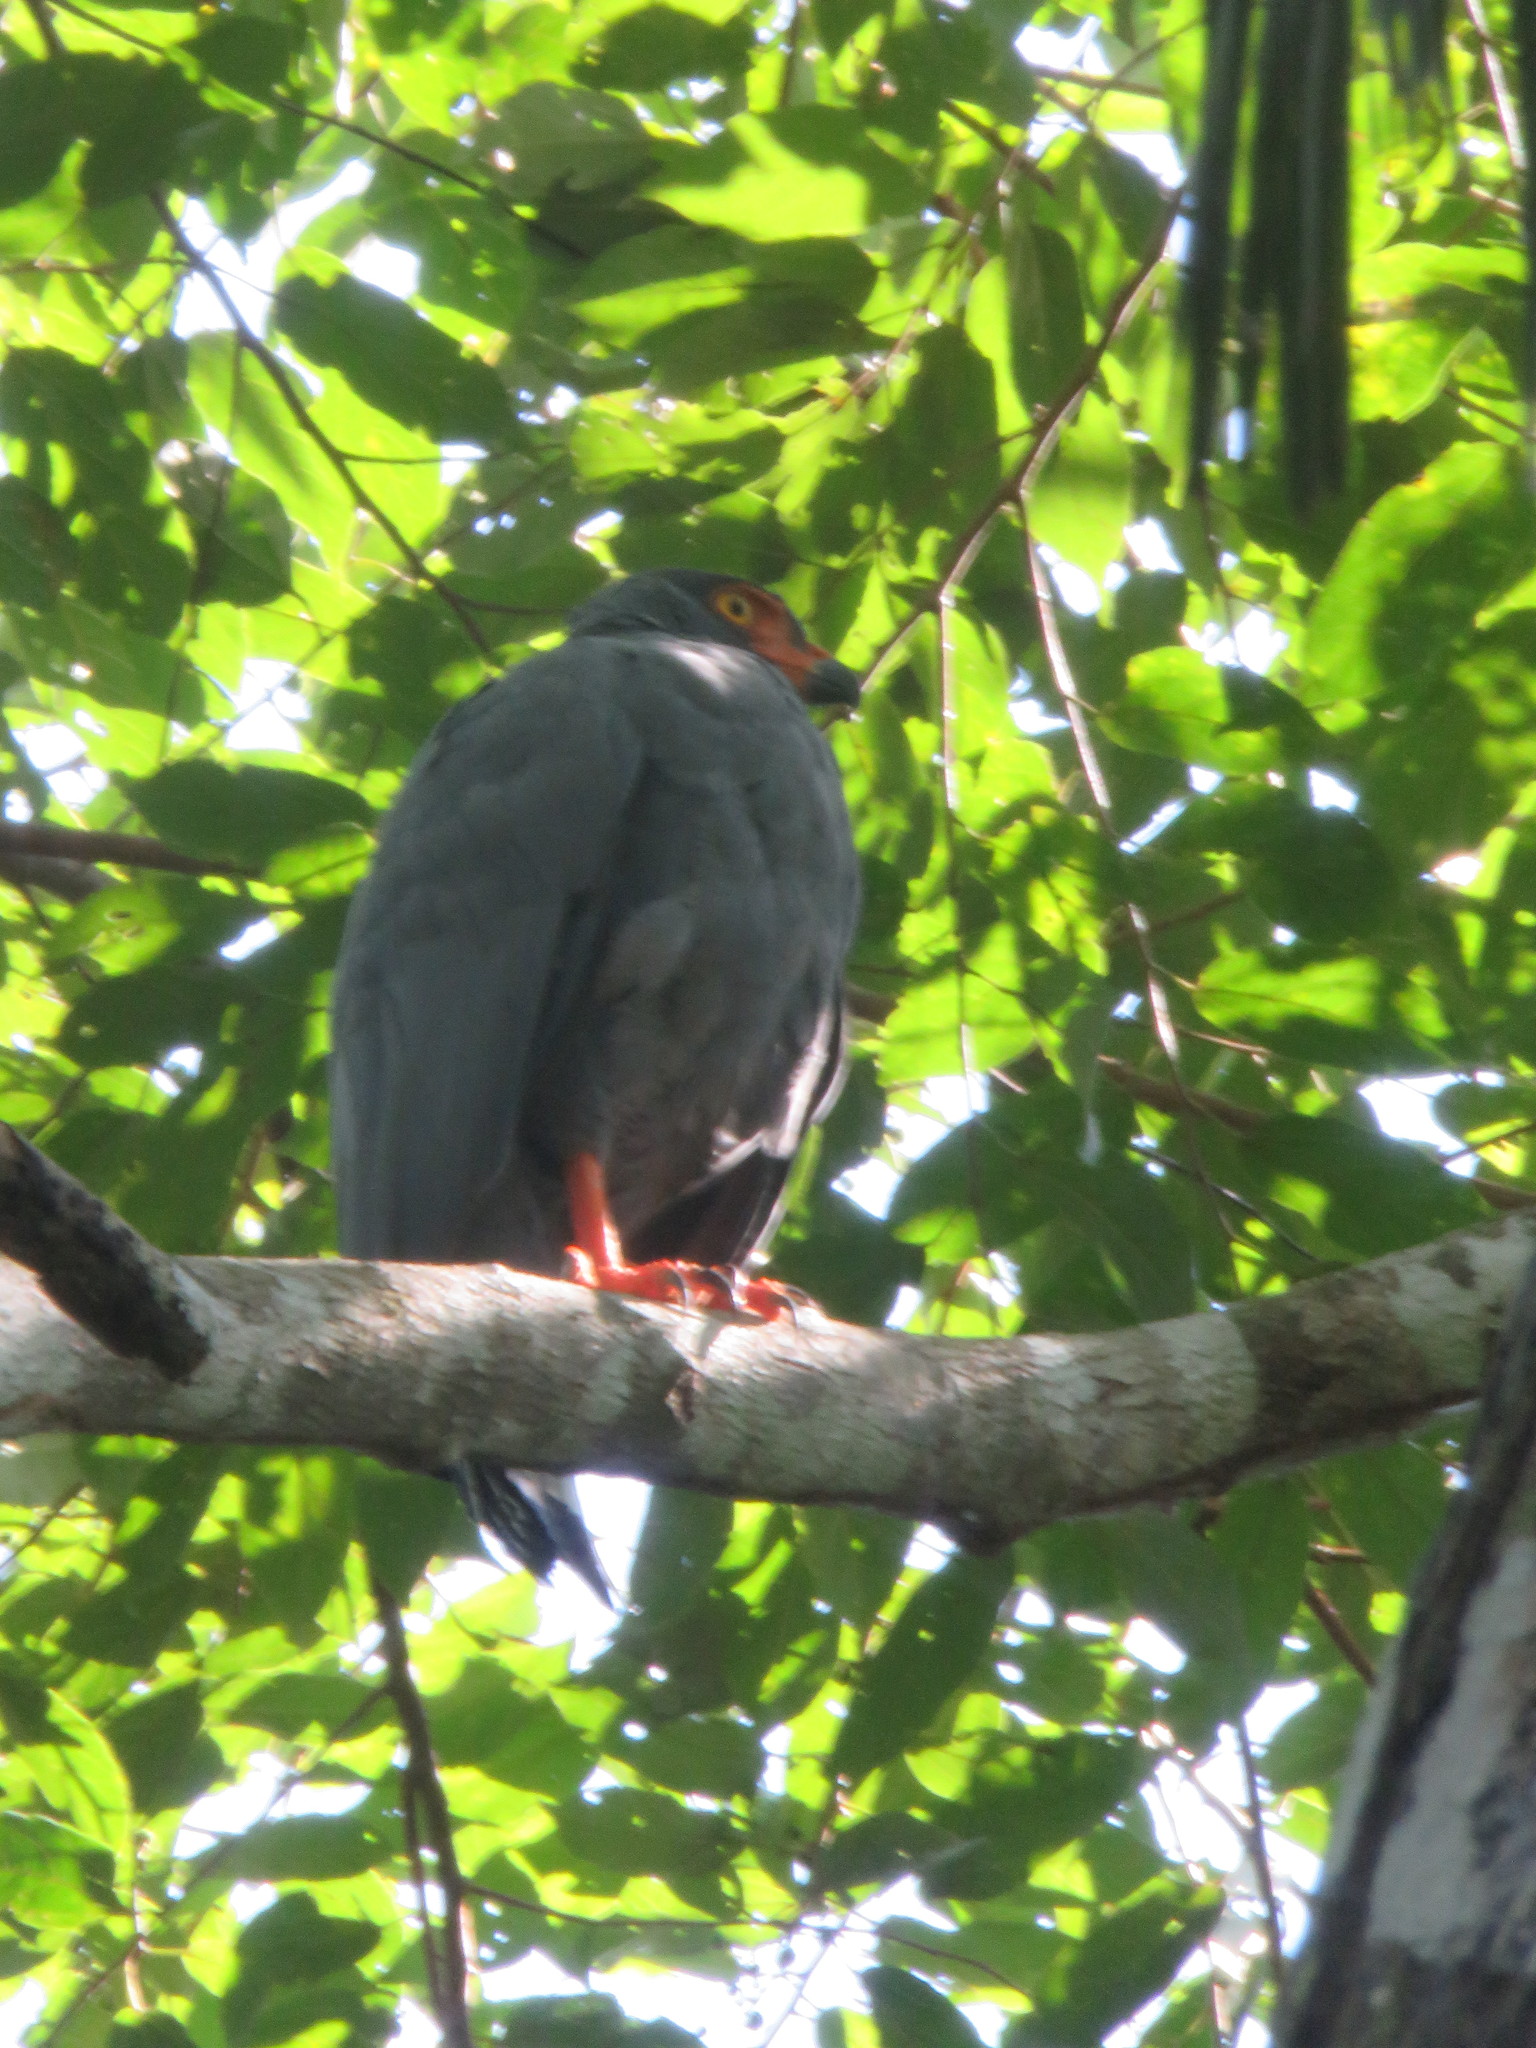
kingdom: Animalia
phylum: Chordata
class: Aves
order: Accipitriformes
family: Accipitridae
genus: Leucopternis
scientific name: Leucopternis schistaceus
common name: Slate-colored hawk
